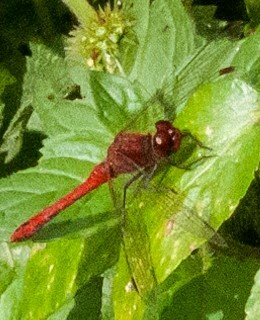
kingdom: Animalia
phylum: Arthropoda
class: Insecta
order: Odonata
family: Libellulidae
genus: Sympetrum
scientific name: Sympetrum sanguineum
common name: Ruddy darter
